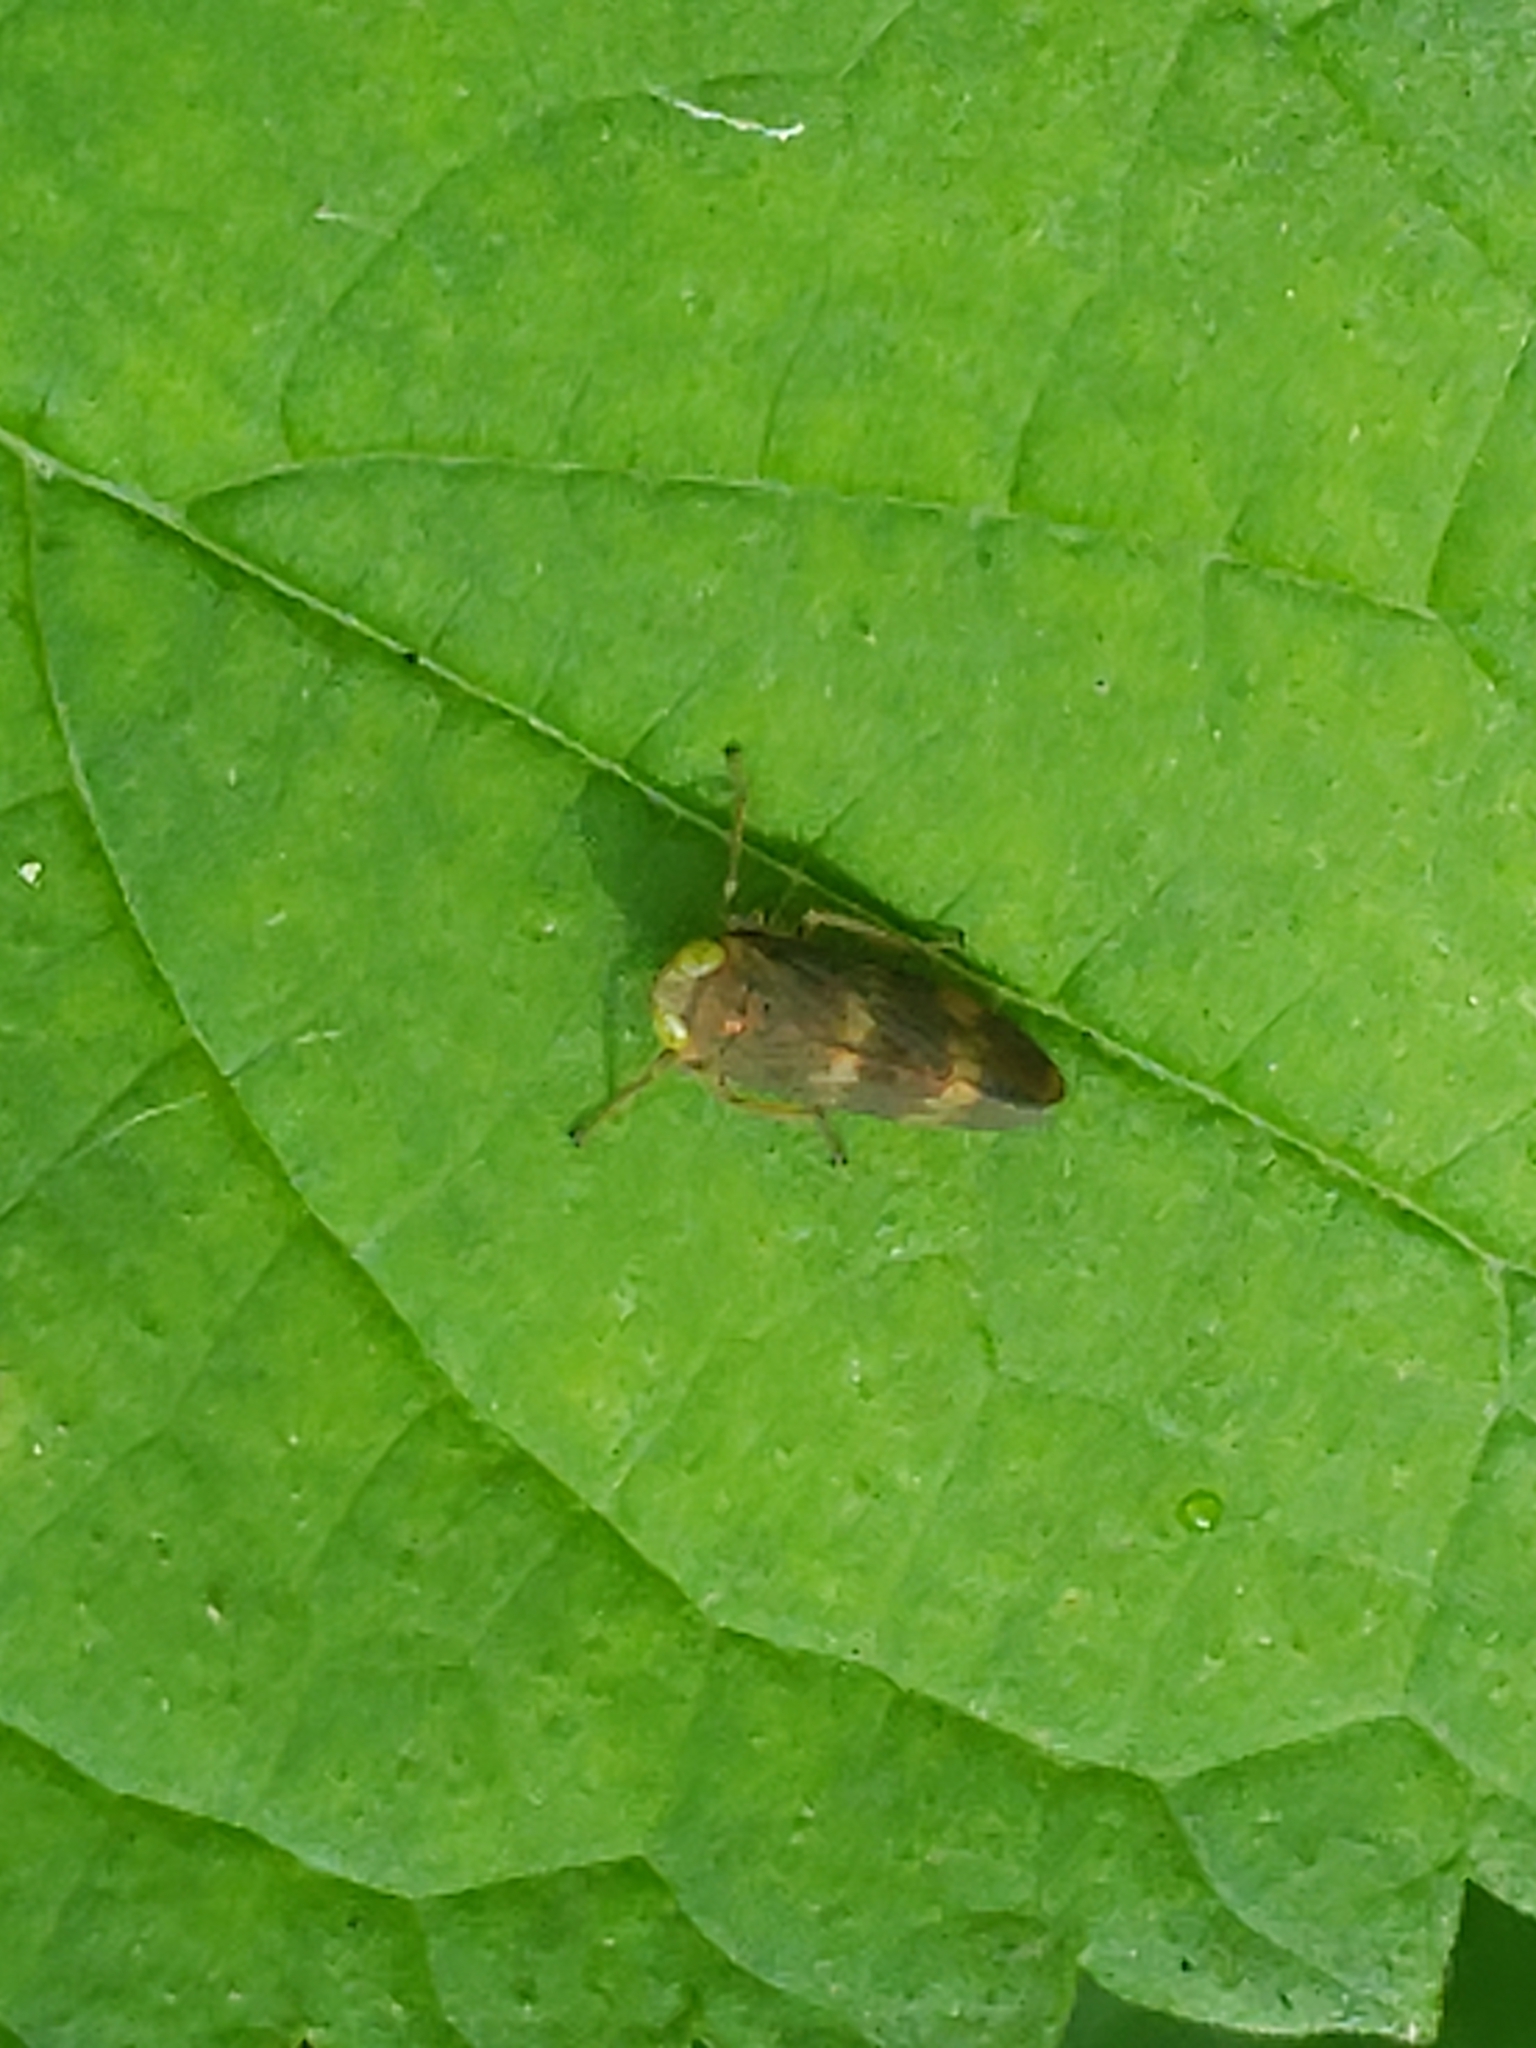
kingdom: Animalia
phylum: Arthropoda
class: Insecta
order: Hemiptera
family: Cicadellidae
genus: Jikradia
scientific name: Jikradia olitoria
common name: Coppery leafhopper
